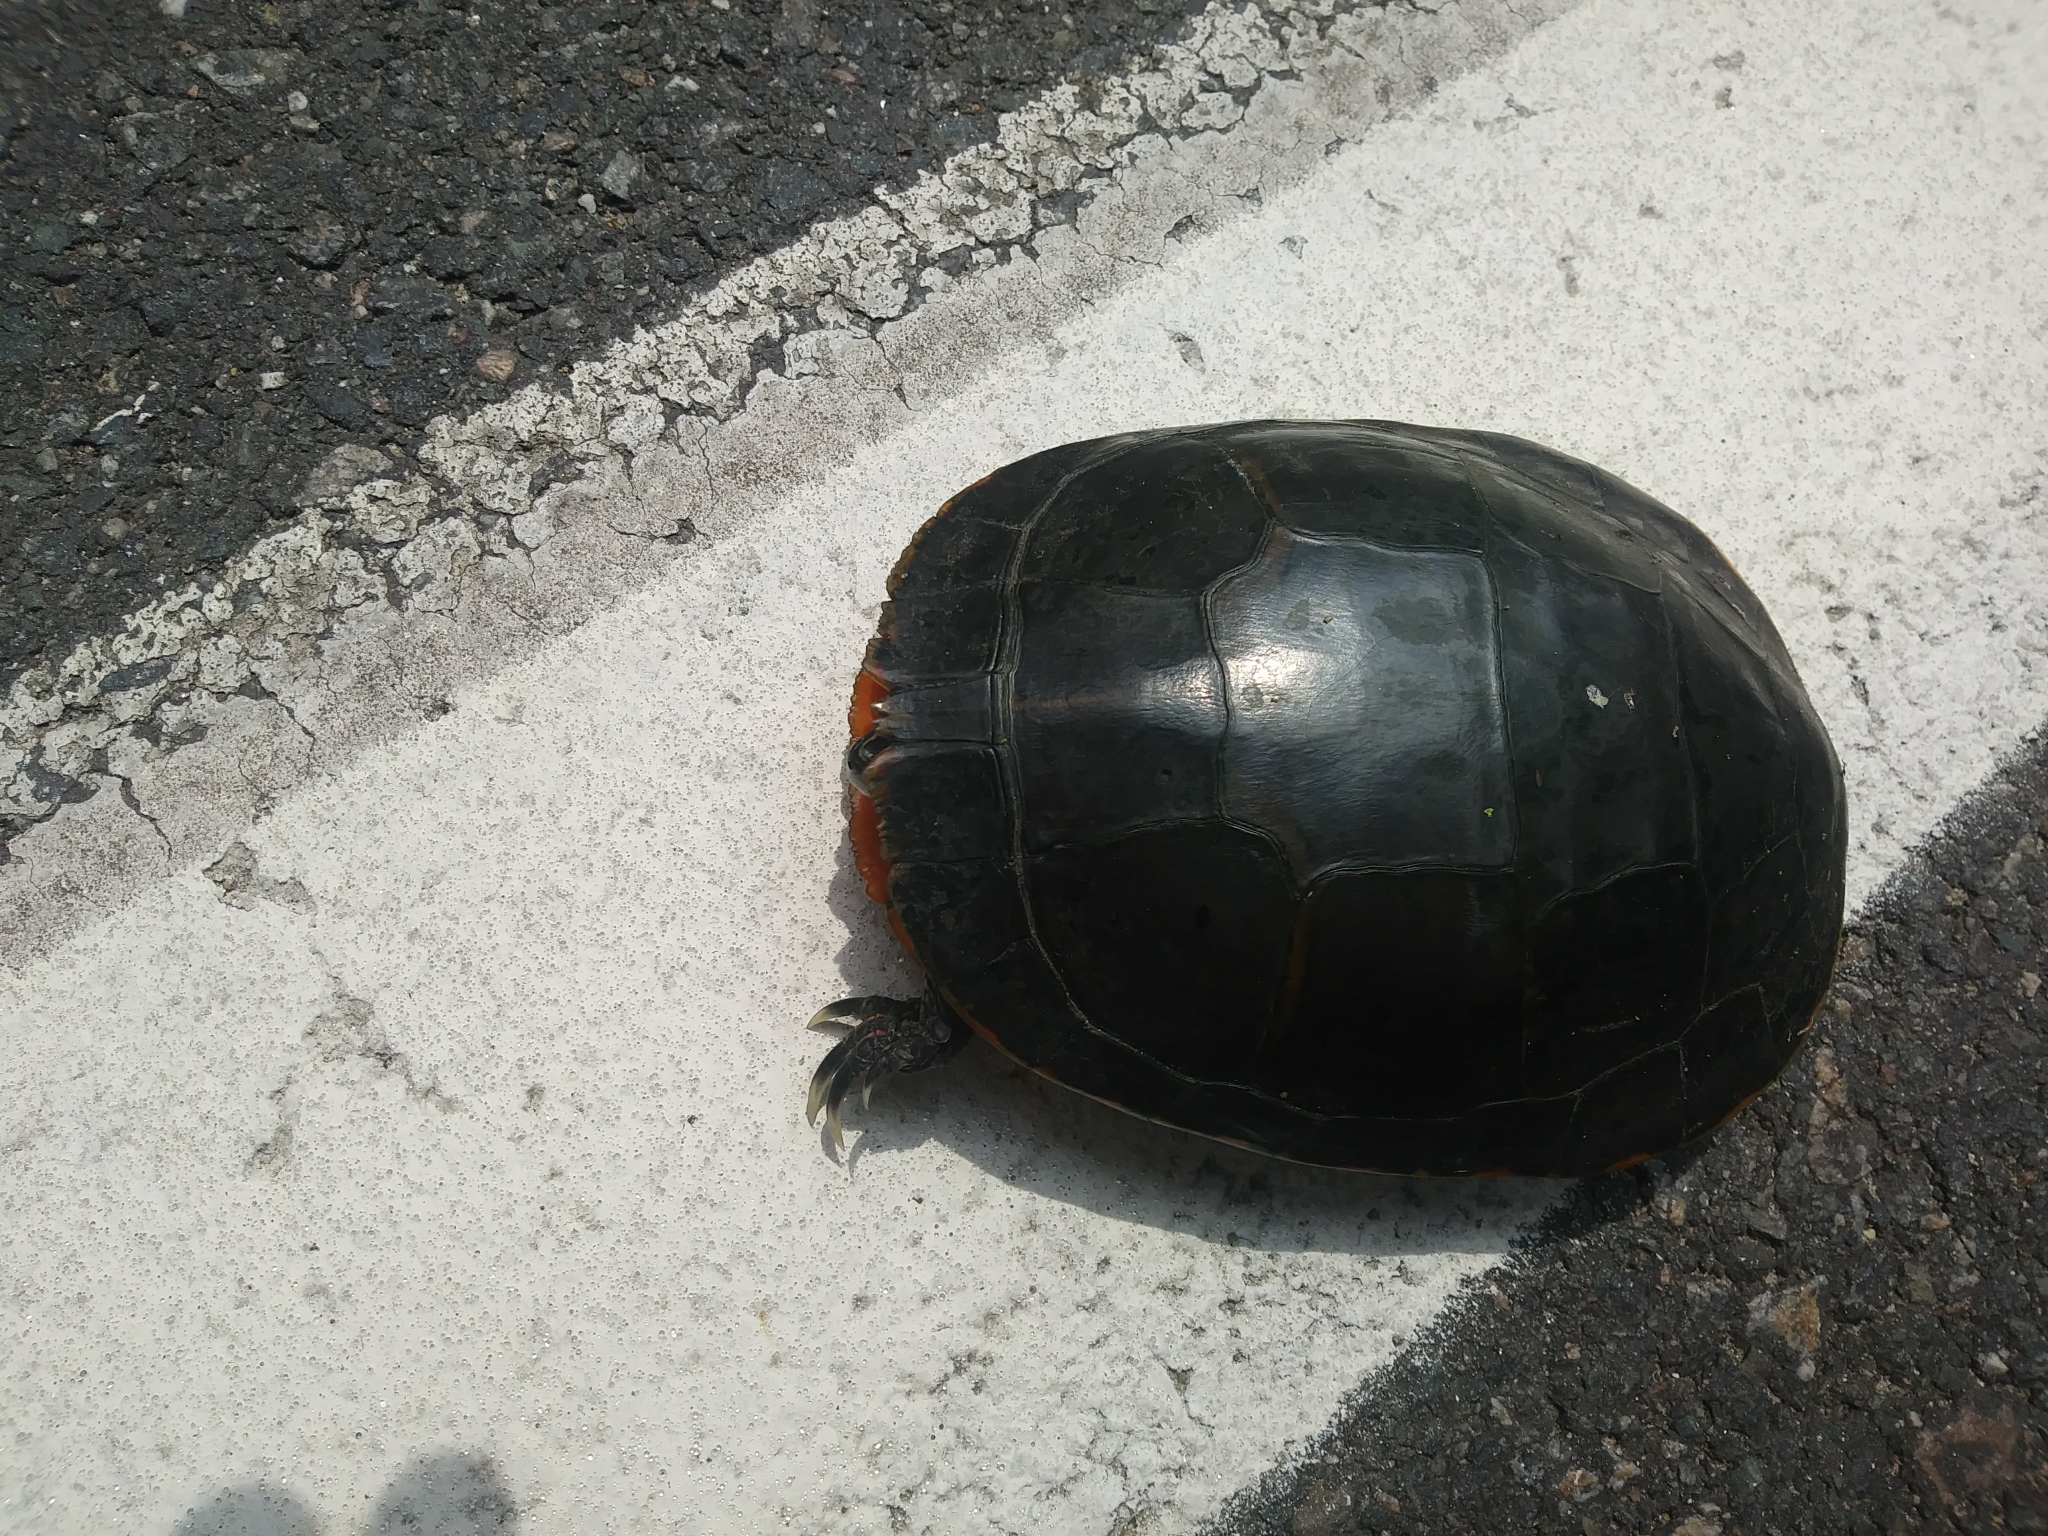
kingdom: Animalia
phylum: Chordata
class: Testudines
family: Emydidae
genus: Chrysemys
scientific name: Chrysemys picta
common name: Painted turtle
